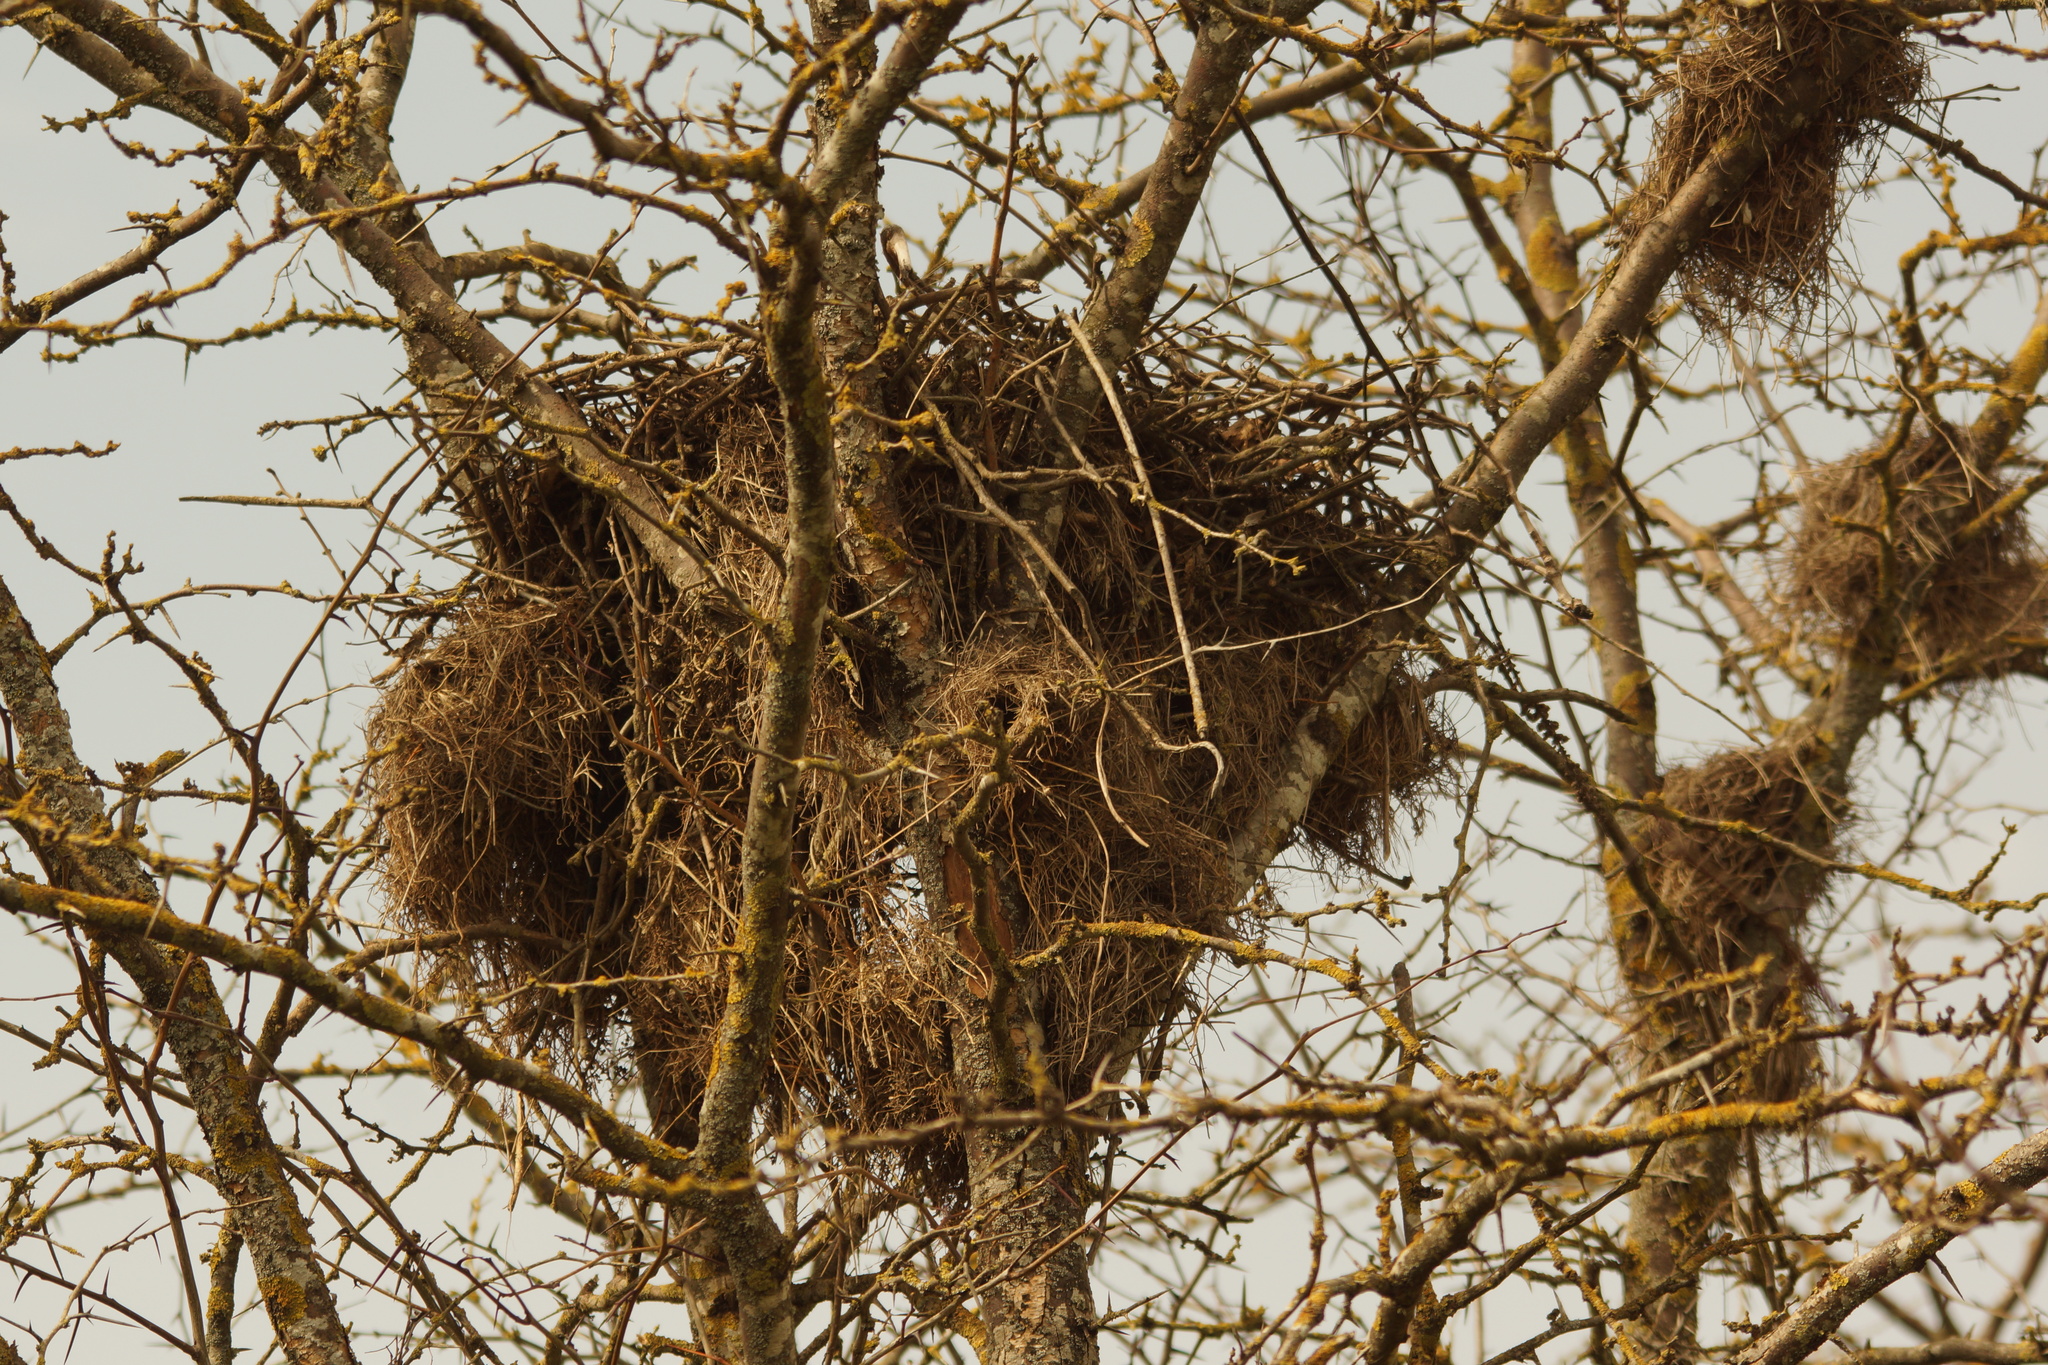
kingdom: Animalia
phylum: Chordata
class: Aves
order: Passeriformes
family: Passeridae
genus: Passer
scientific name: Passer hispaniolensis
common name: Spanish sparrow
